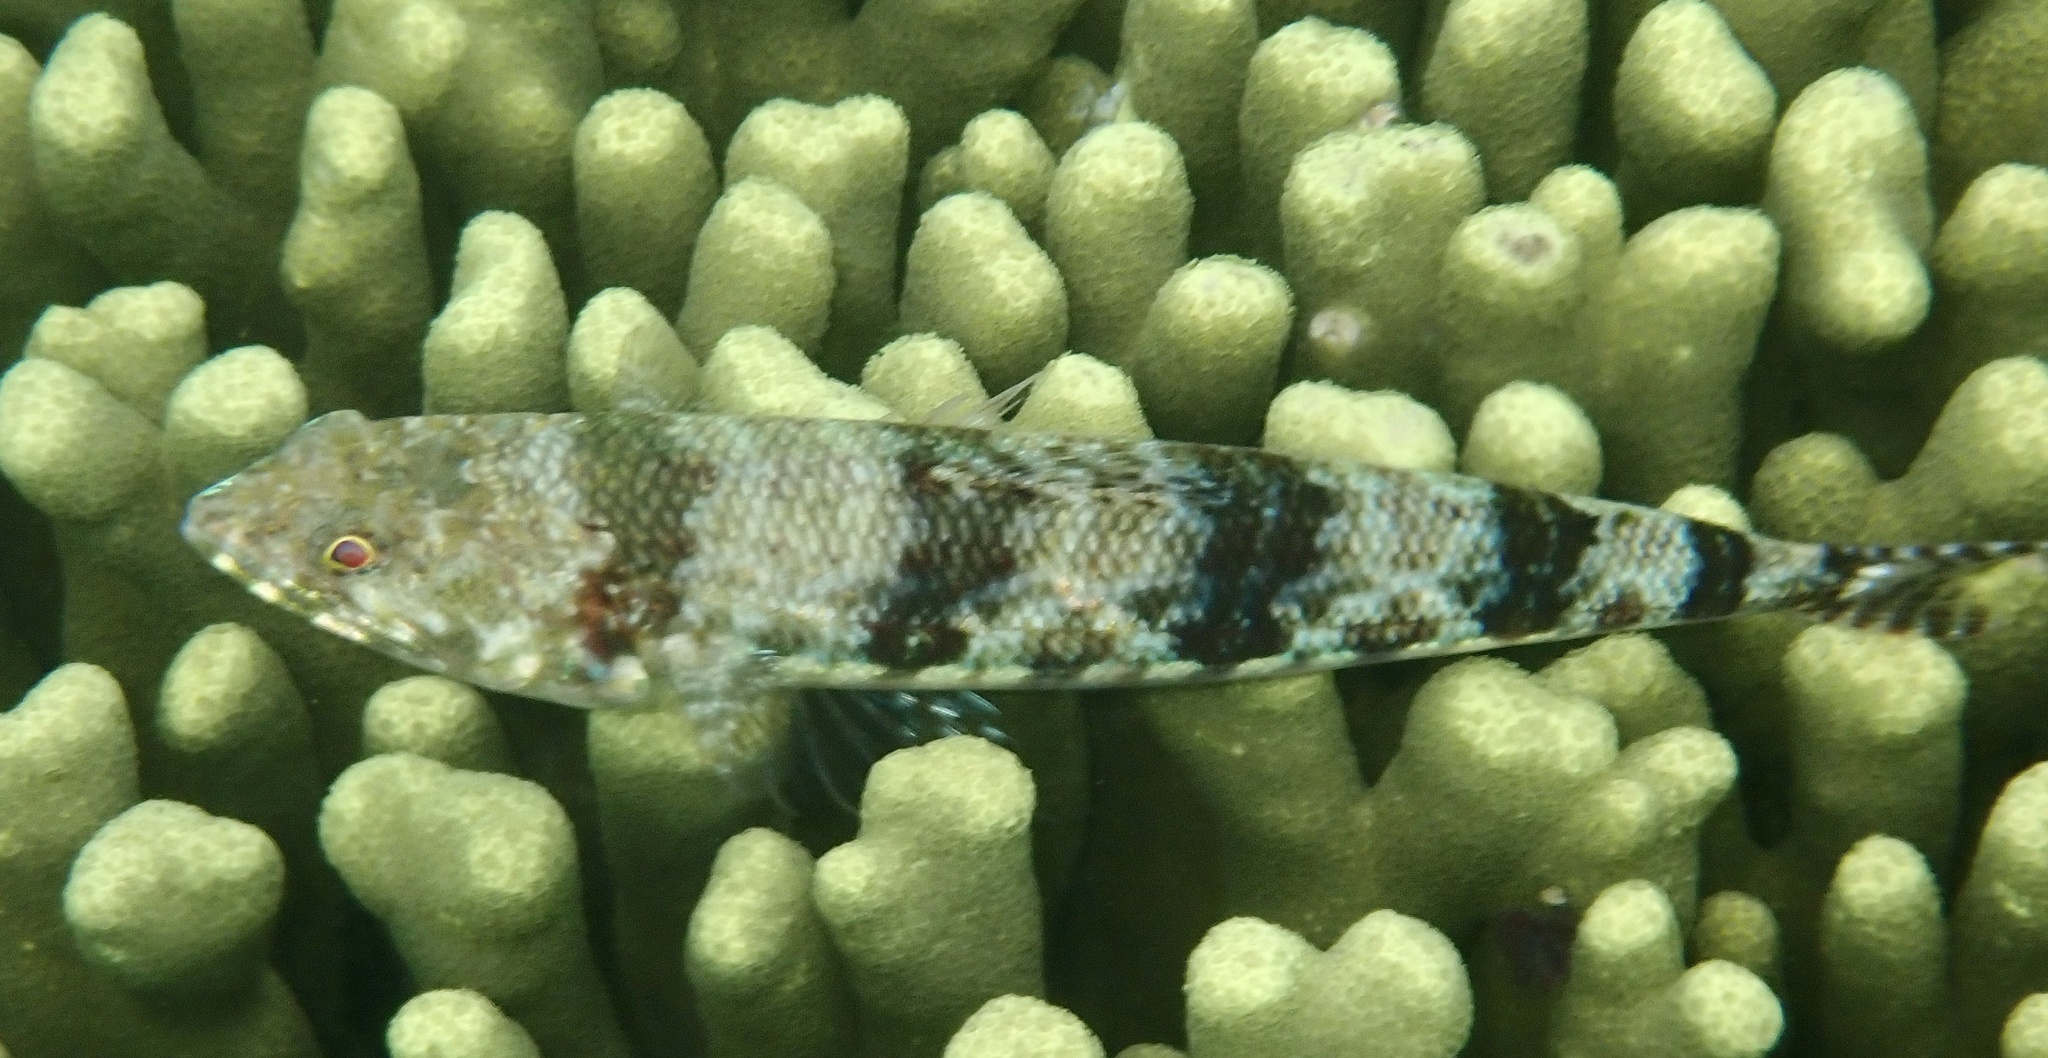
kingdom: Animalia
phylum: Chordata
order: Aulopiformes
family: Synodontidae
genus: Synodus
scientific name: Synodus variegatus
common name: Variegated lizardfish
